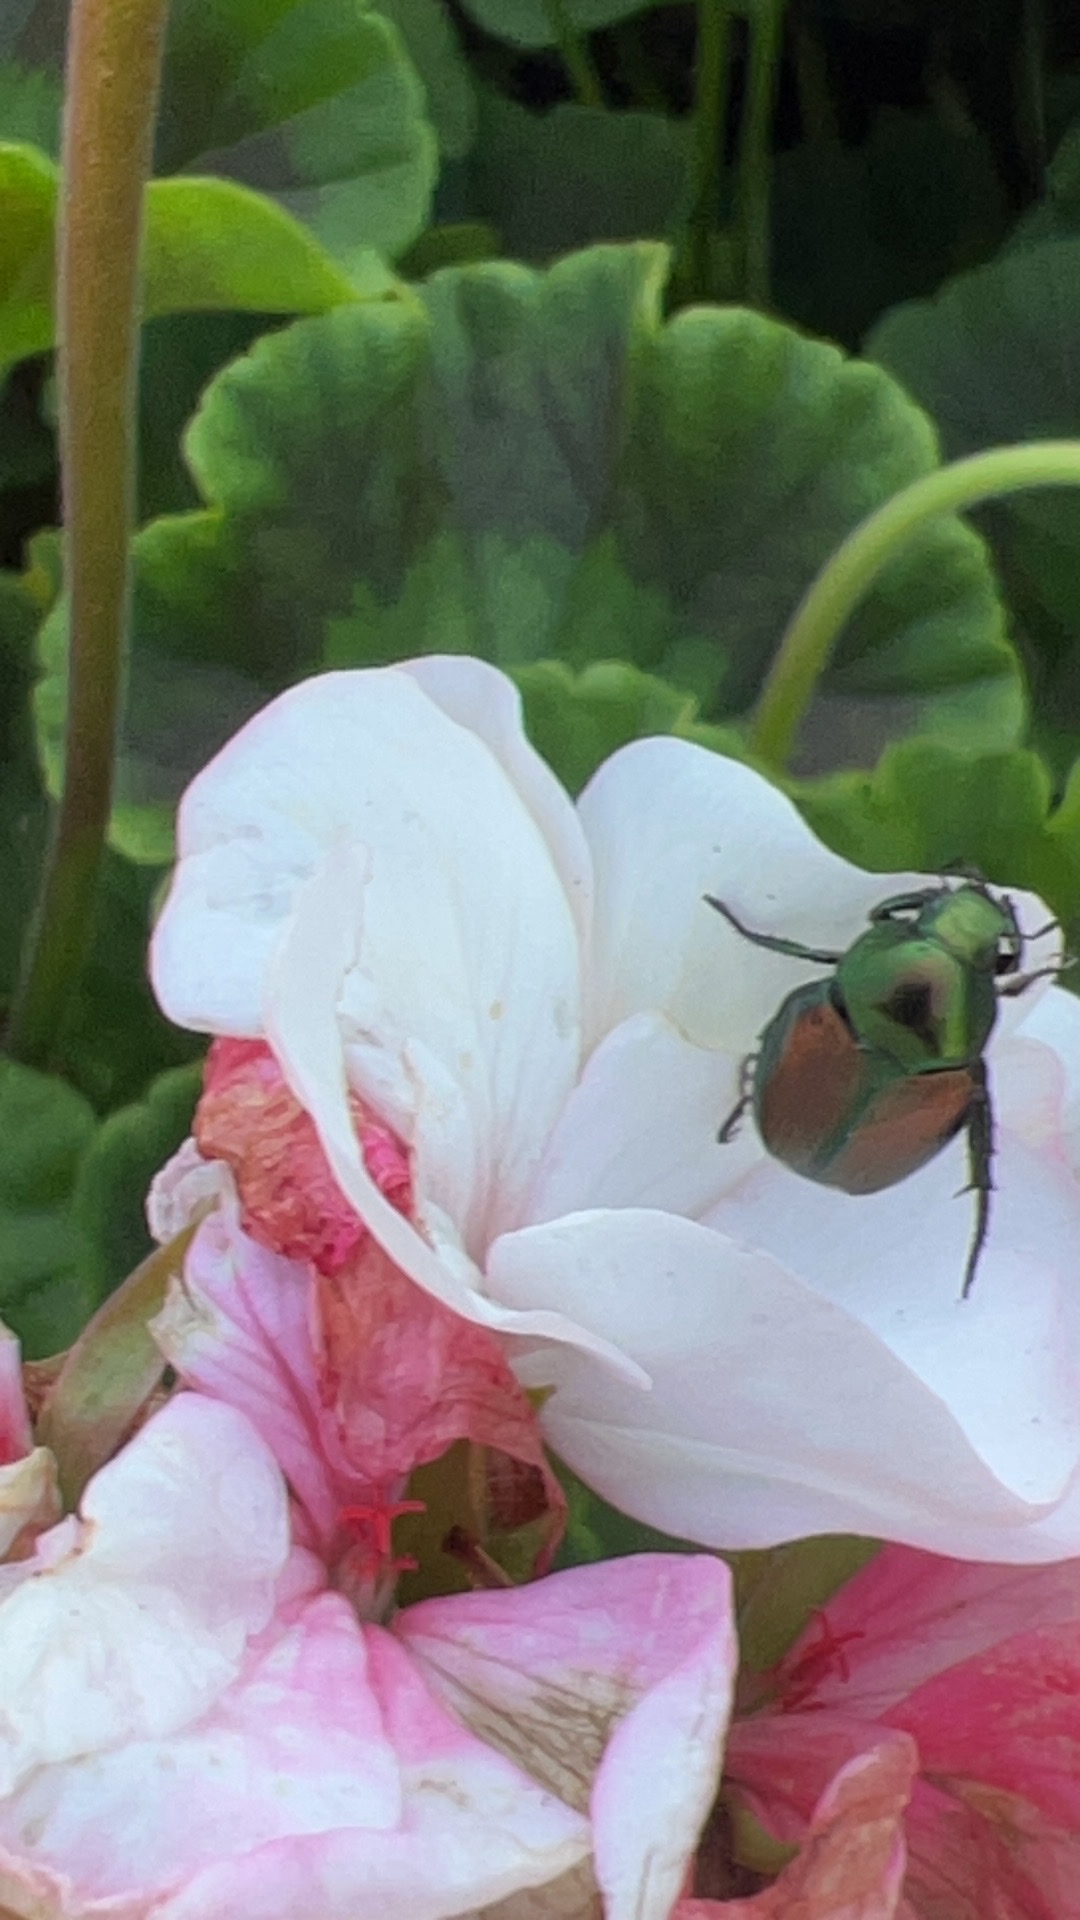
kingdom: Animalia
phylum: Arthropoda
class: Insecta
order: Coleoptera
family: Scarabaeidae
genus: Popillia
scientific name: Popillia japonica
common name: Japanese beetle
